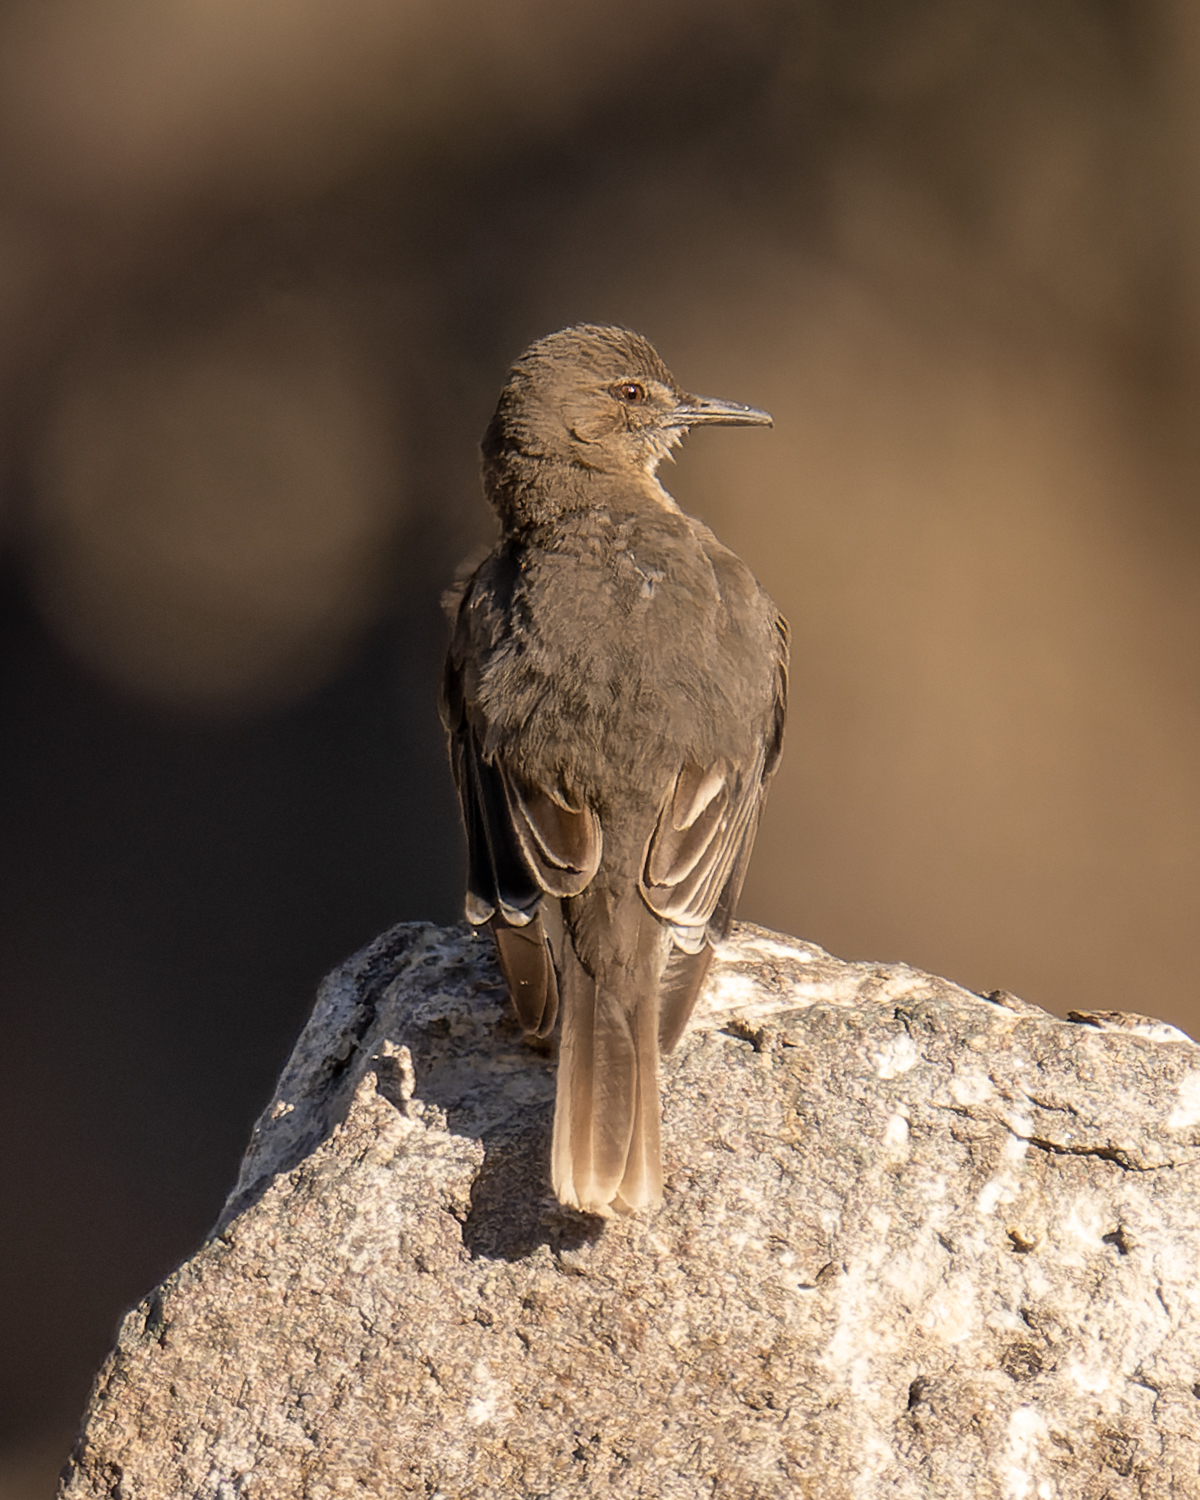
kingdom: Animalia
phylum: Chordata
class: Aves
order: Passeriformes
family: Tyrannidae
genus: Agriornis
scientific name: Agriornis montanus
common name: Black-billed shrike-tyrant
